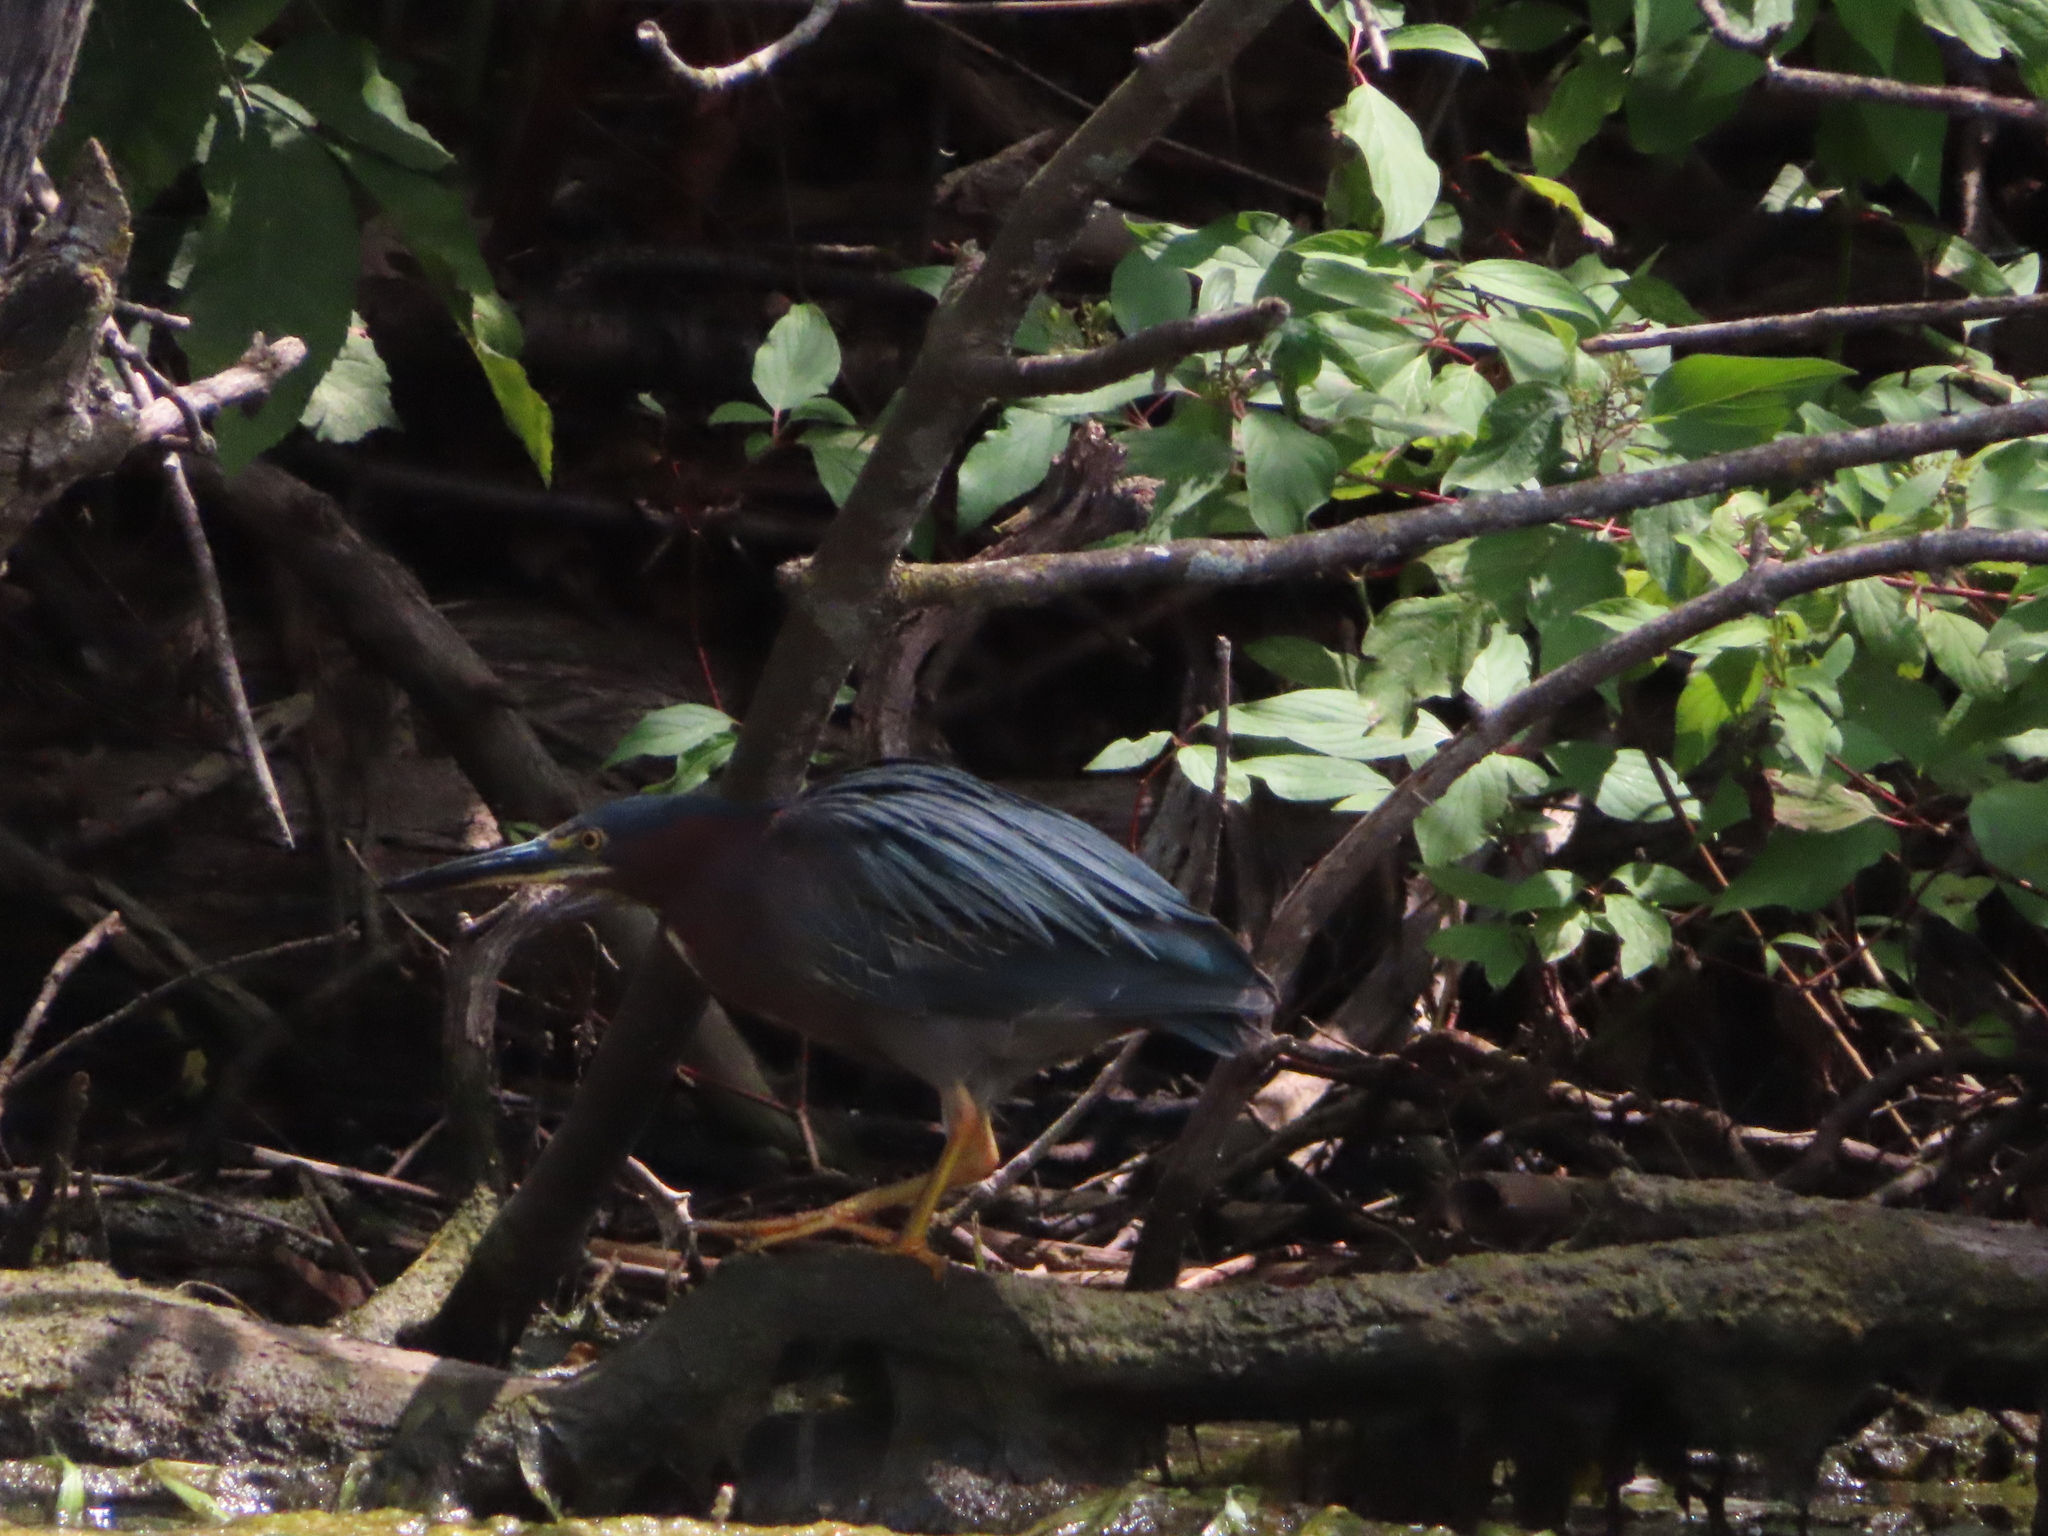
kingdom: Animalia
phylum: Chordata
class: Aves
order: Pelecaniformes
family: Ardeidae
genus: Butorides
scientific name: Butorides virescens
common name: Green heron
